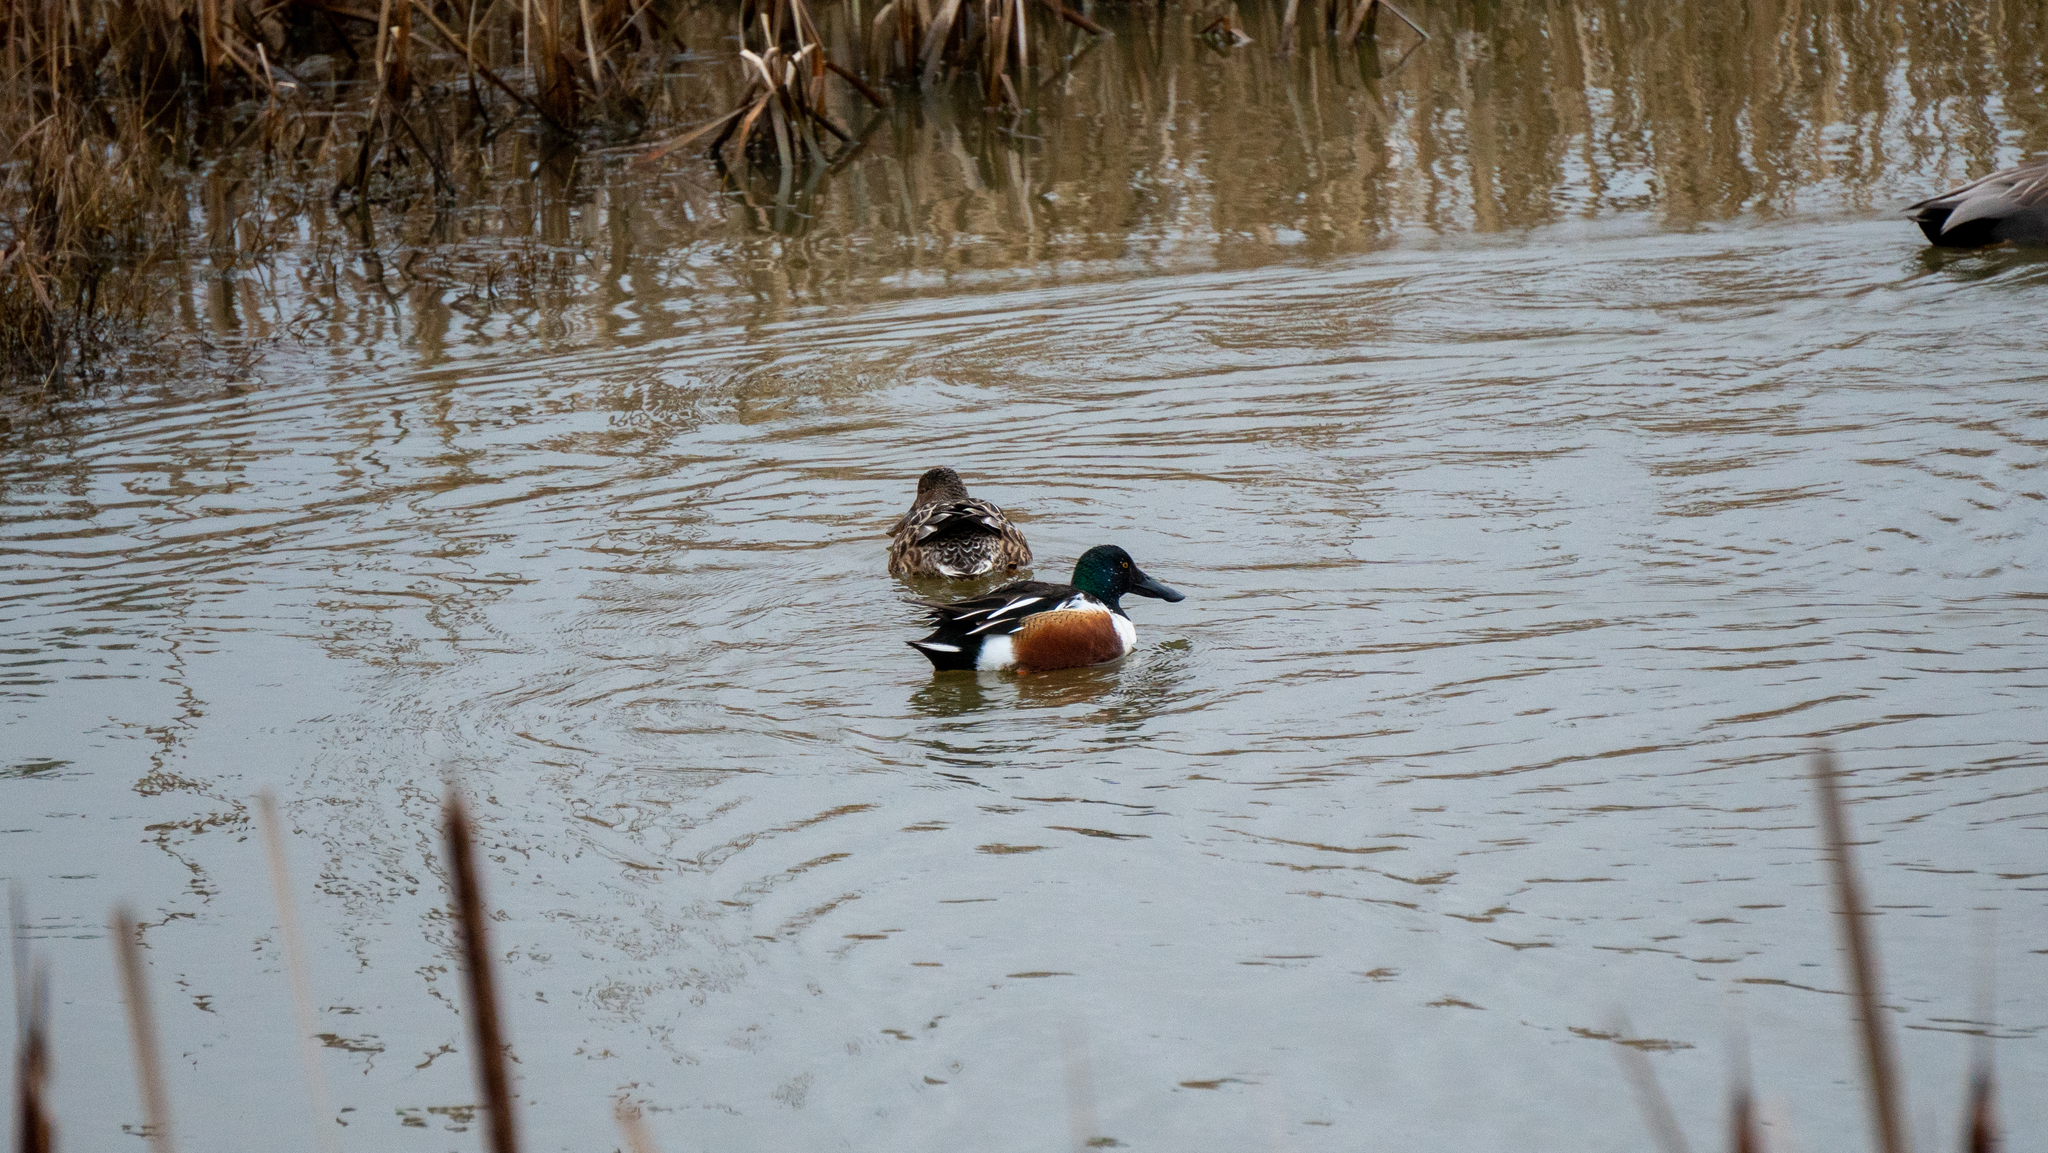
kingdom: Animalia
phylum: Chordata
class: Aves
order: Anseriformes
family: Anatidae
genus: Spatula
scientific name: Spatula clypeata
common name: Northern shoveler
